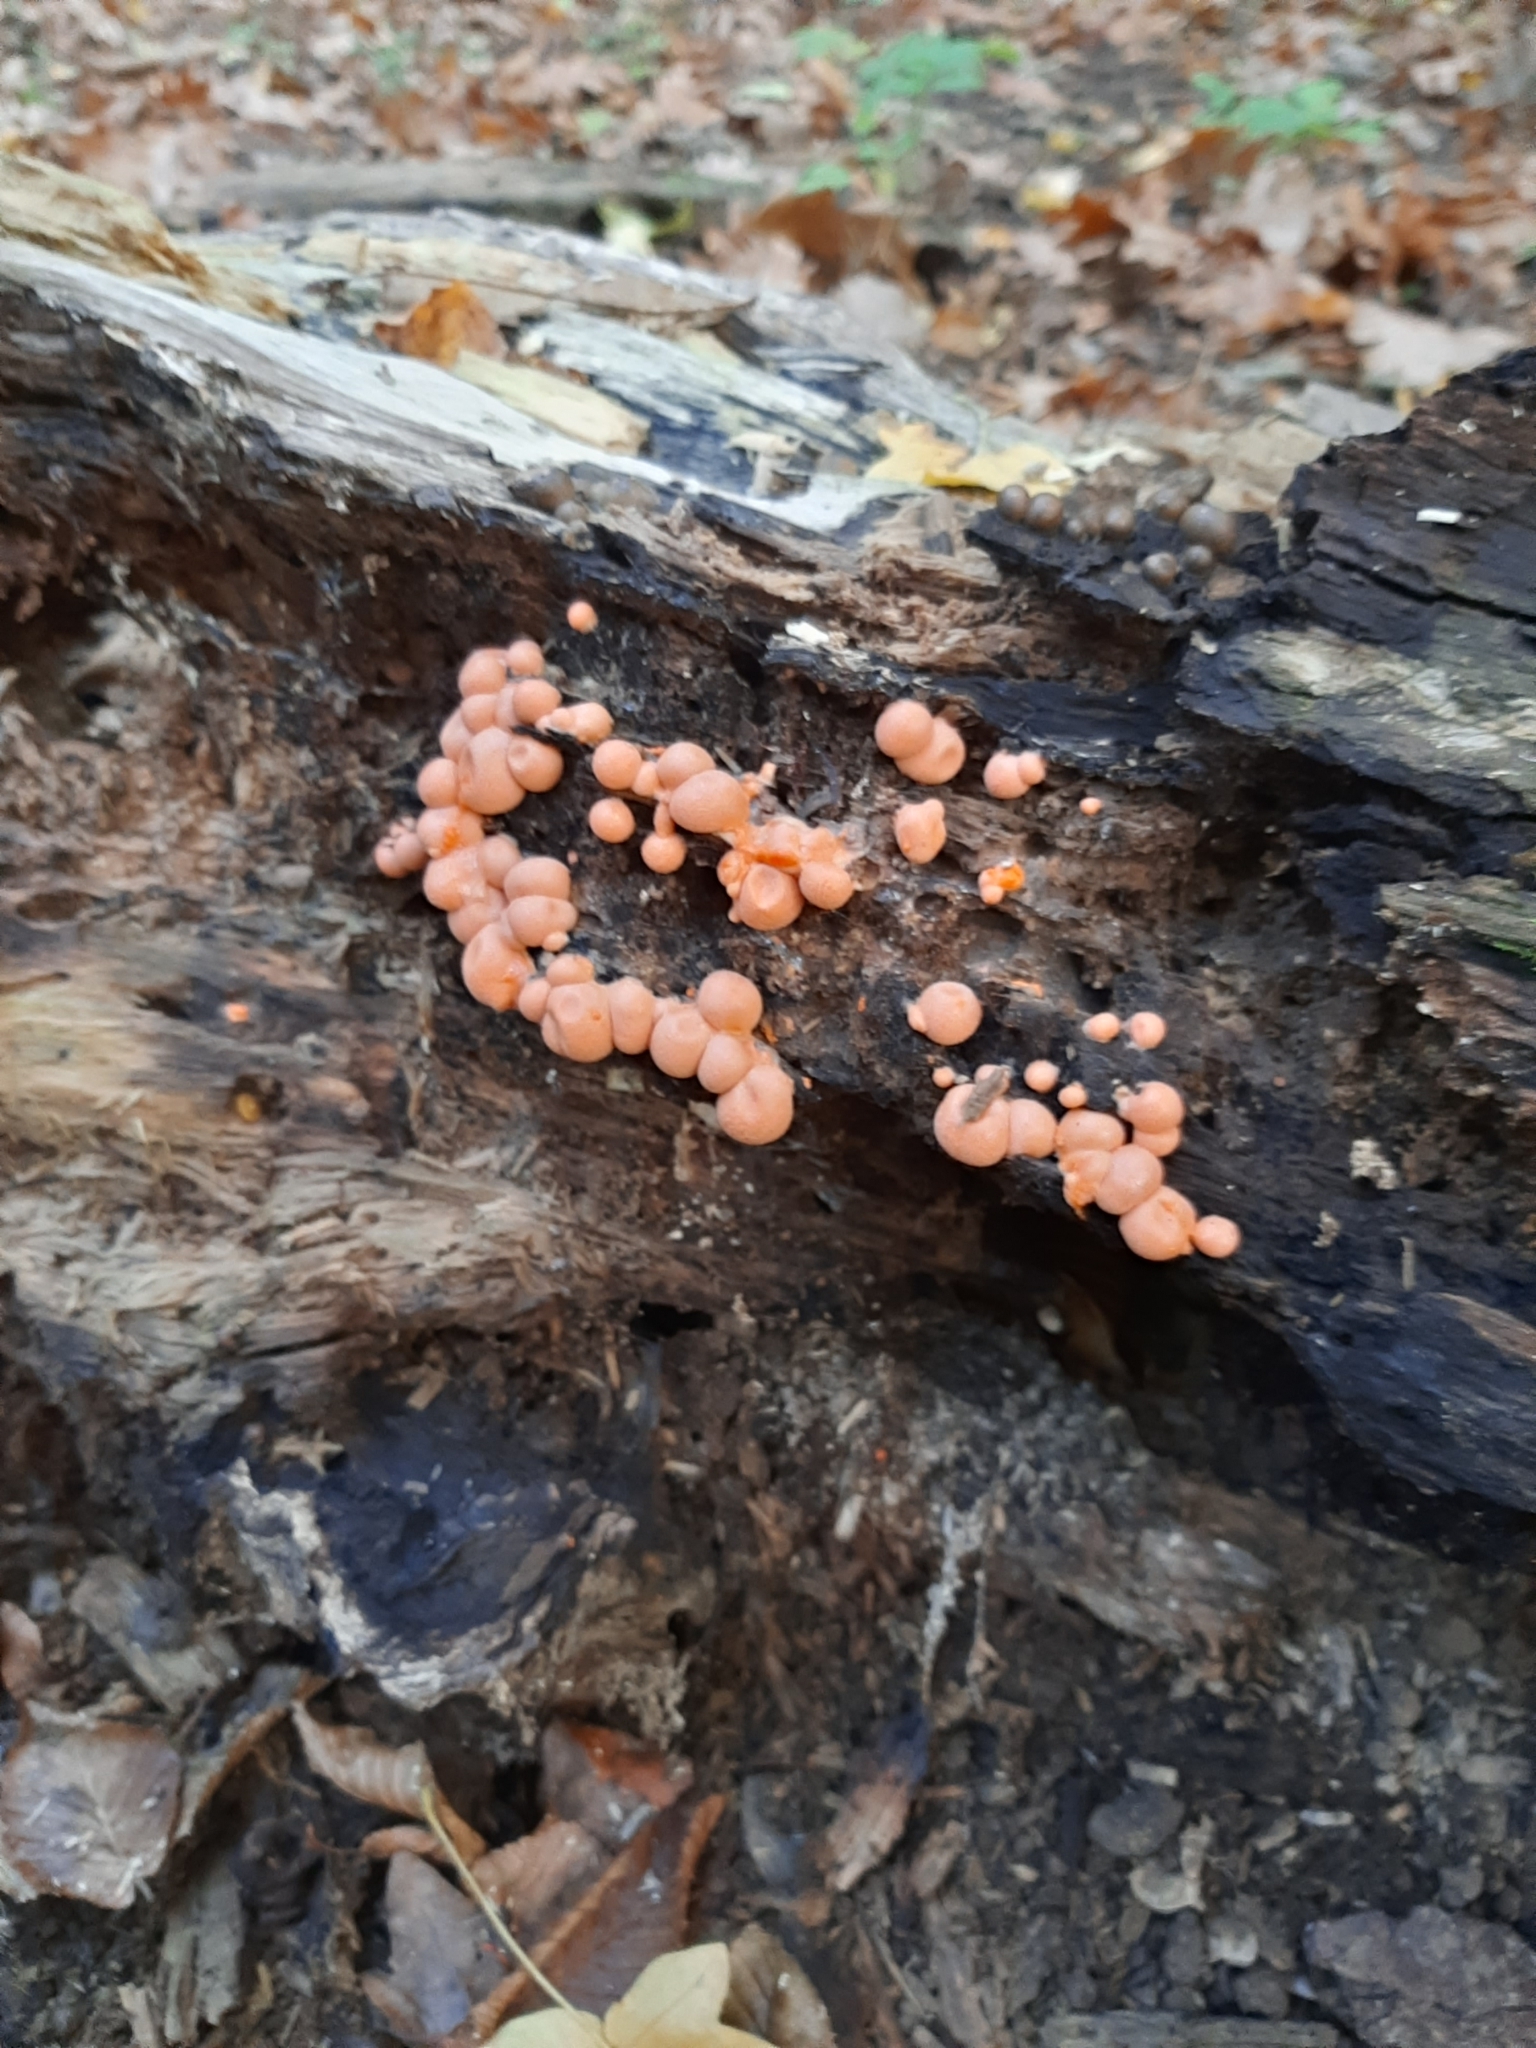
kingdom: Protozoa
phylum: Mycetozoa
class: Myxomycetes
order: Cribrariales
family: Tubiferaceae
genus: Lycogala
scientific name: Lycogala epidendrum
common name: Wolf's milk
